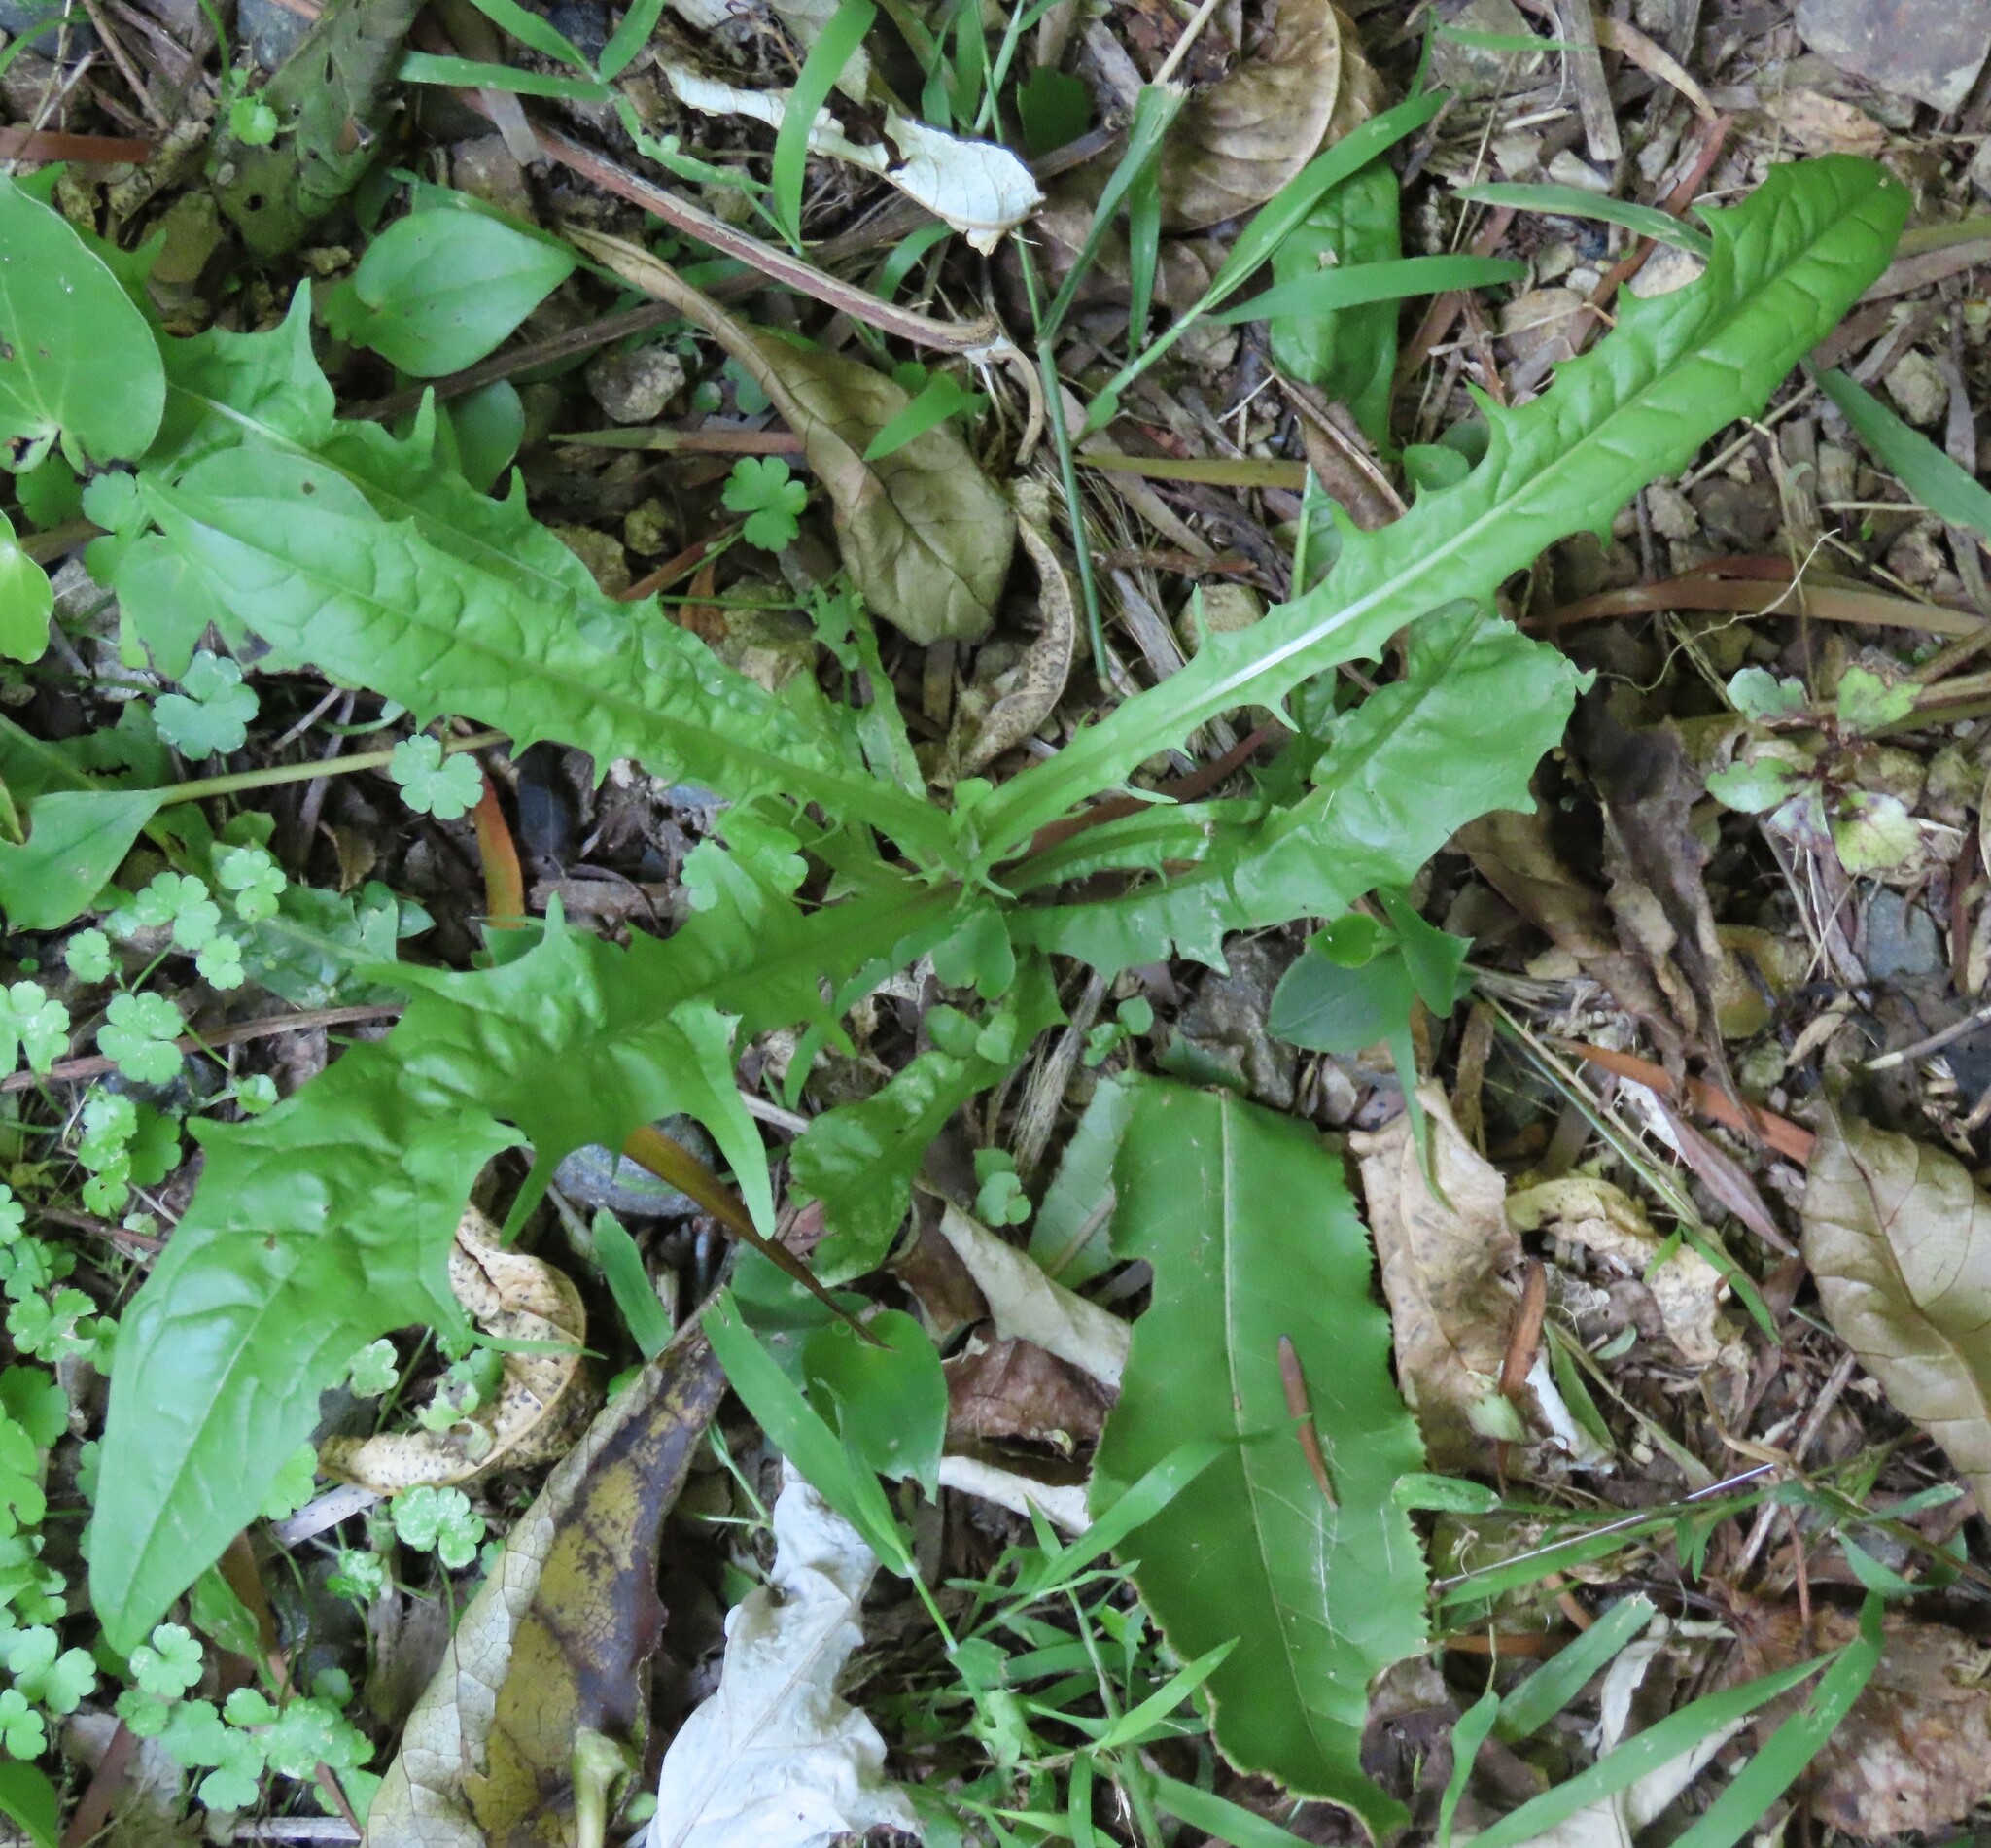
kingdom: Plantae
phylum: Tracheophyta
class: Magnoliopsida
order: Asterales
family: Asteraceae
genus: Crepis
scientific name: Crepis capillaris
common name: Smooth hawksbeard
